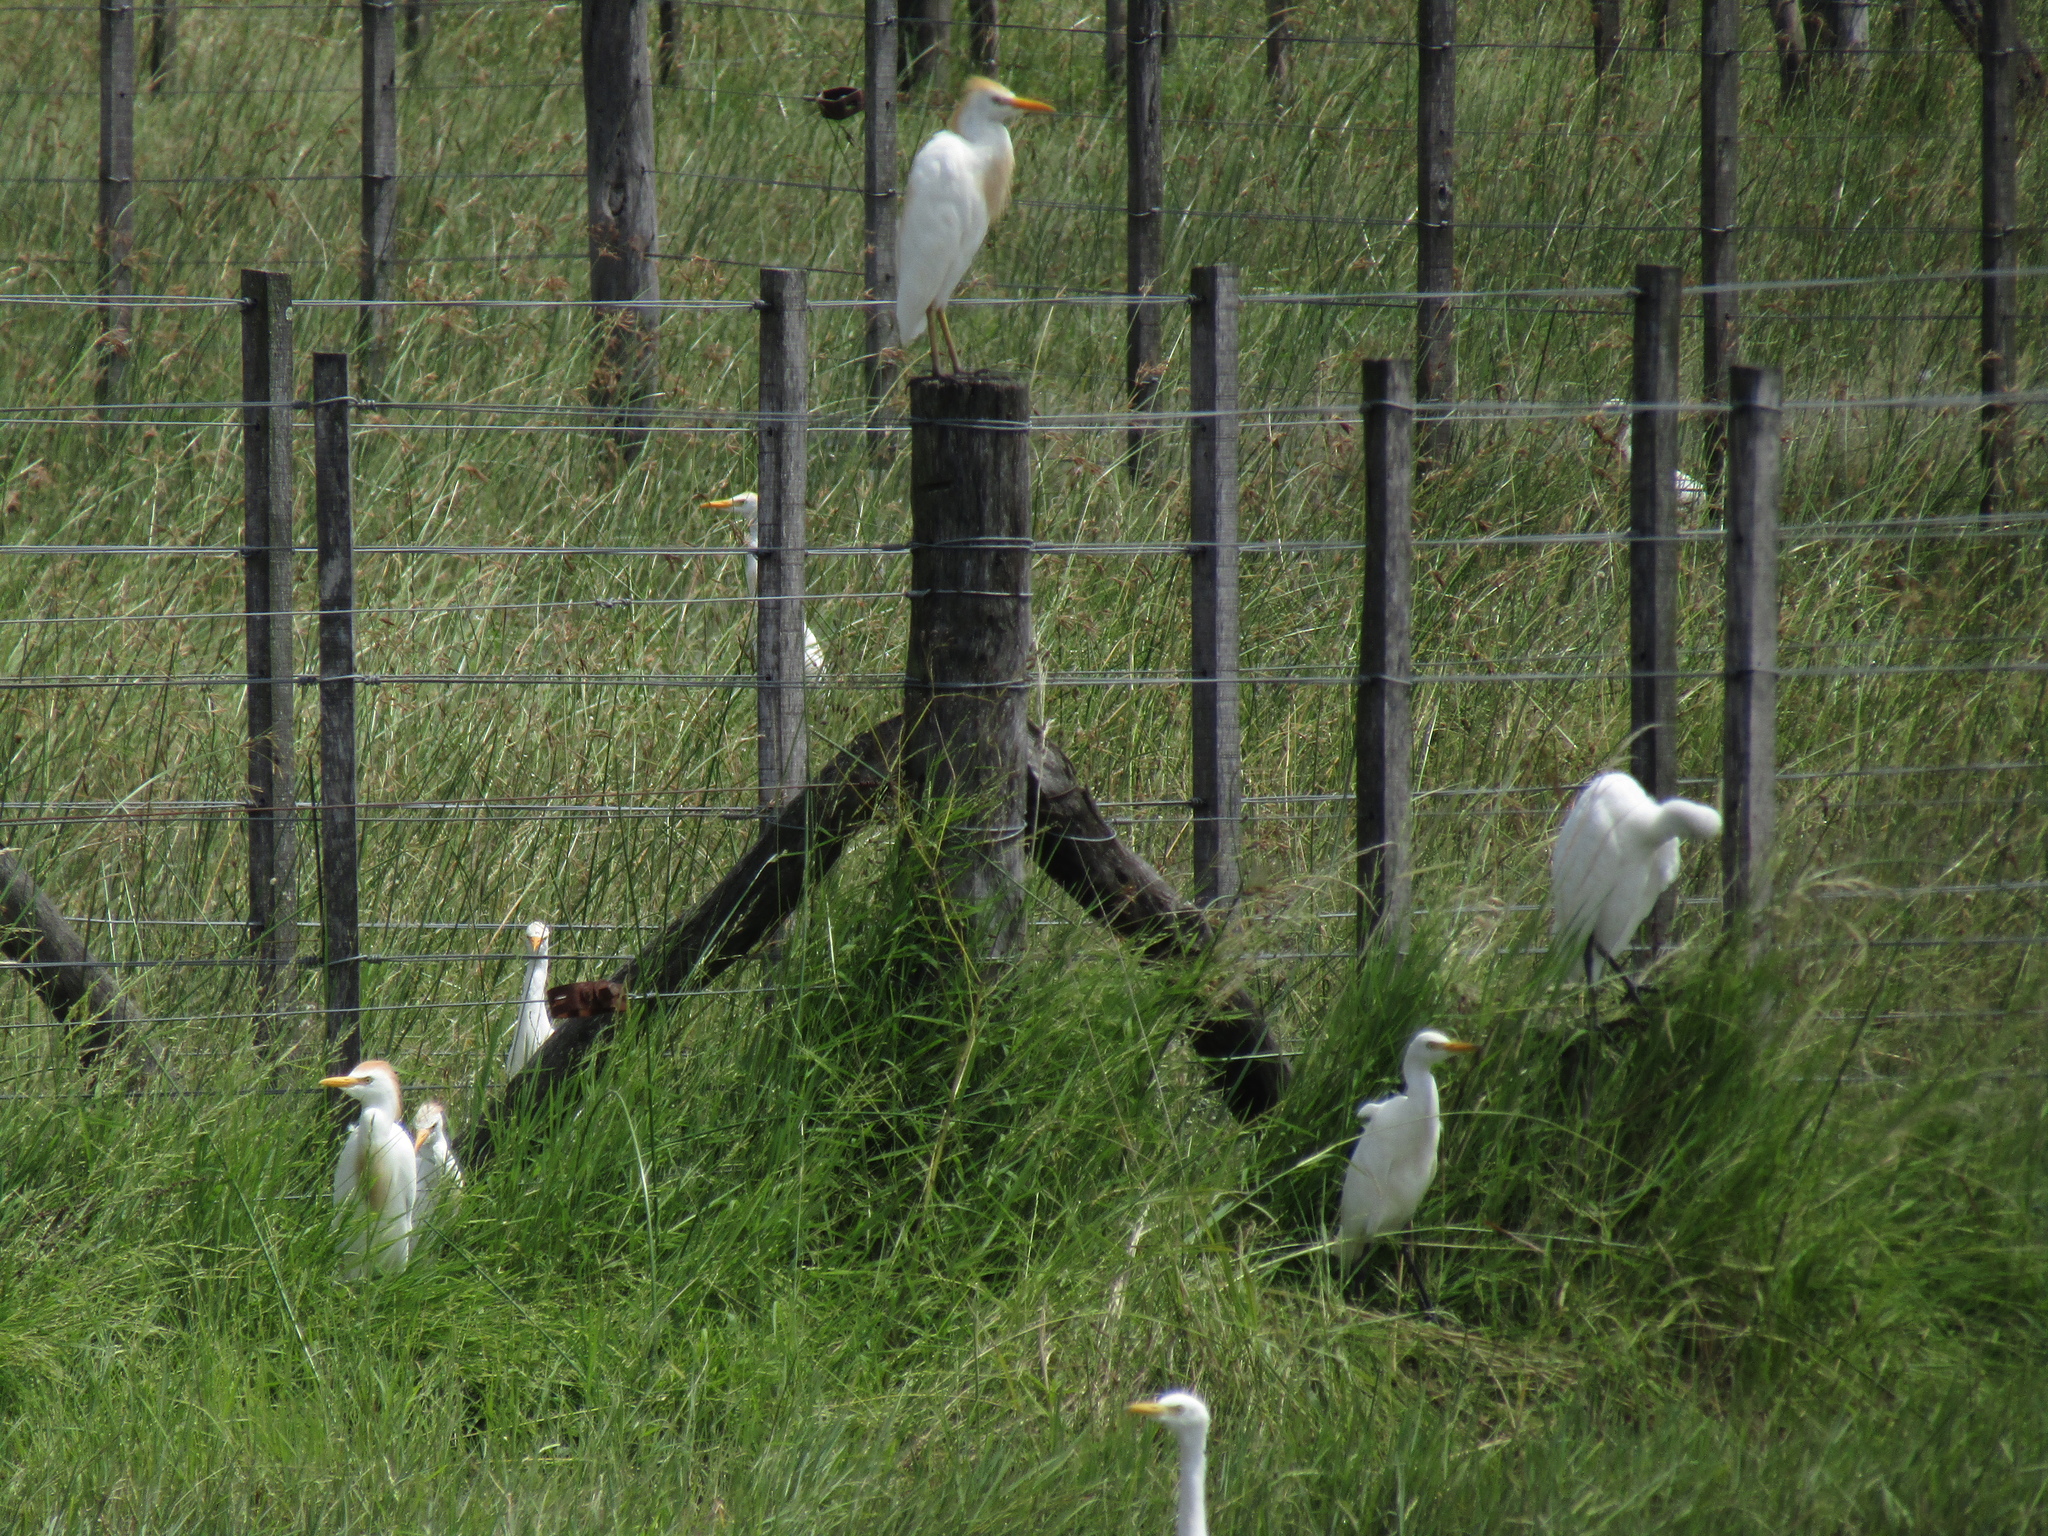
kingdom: Animalia
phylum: Chordata
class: Aves
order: Pelecaniformes
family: Ardeidae
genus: Bubulcus
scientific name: Bubulcus ibis
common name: Cattle egret
